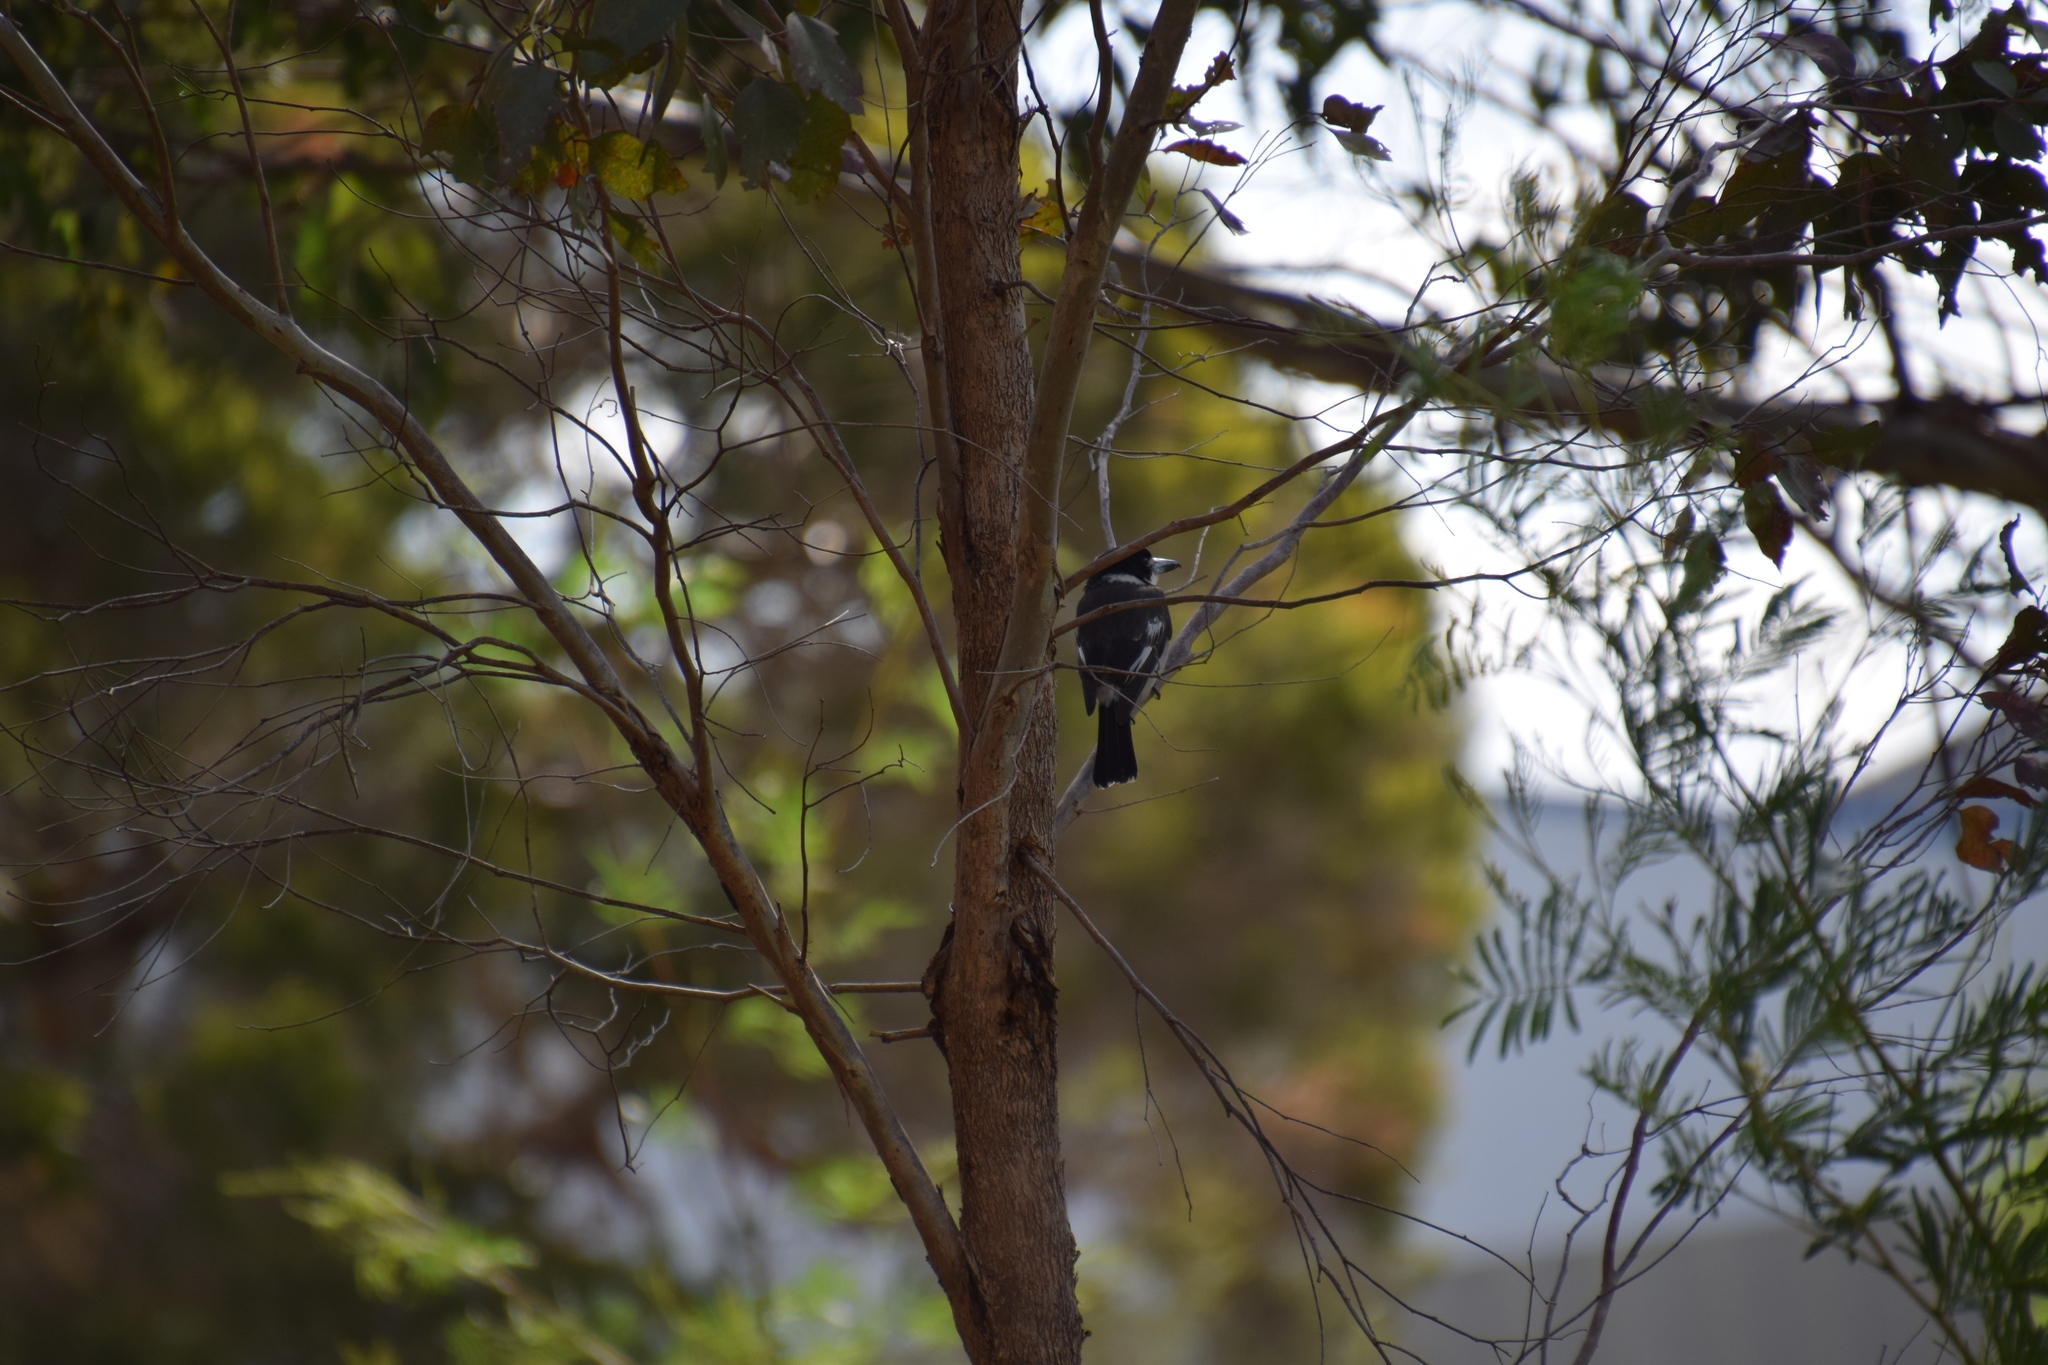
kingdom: Animalia
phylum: Chordata
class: Aves
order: Passeriformes
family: Cracticidae
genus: Cracticus
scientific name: Cracticus torquatus
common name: Grey butcherbird
